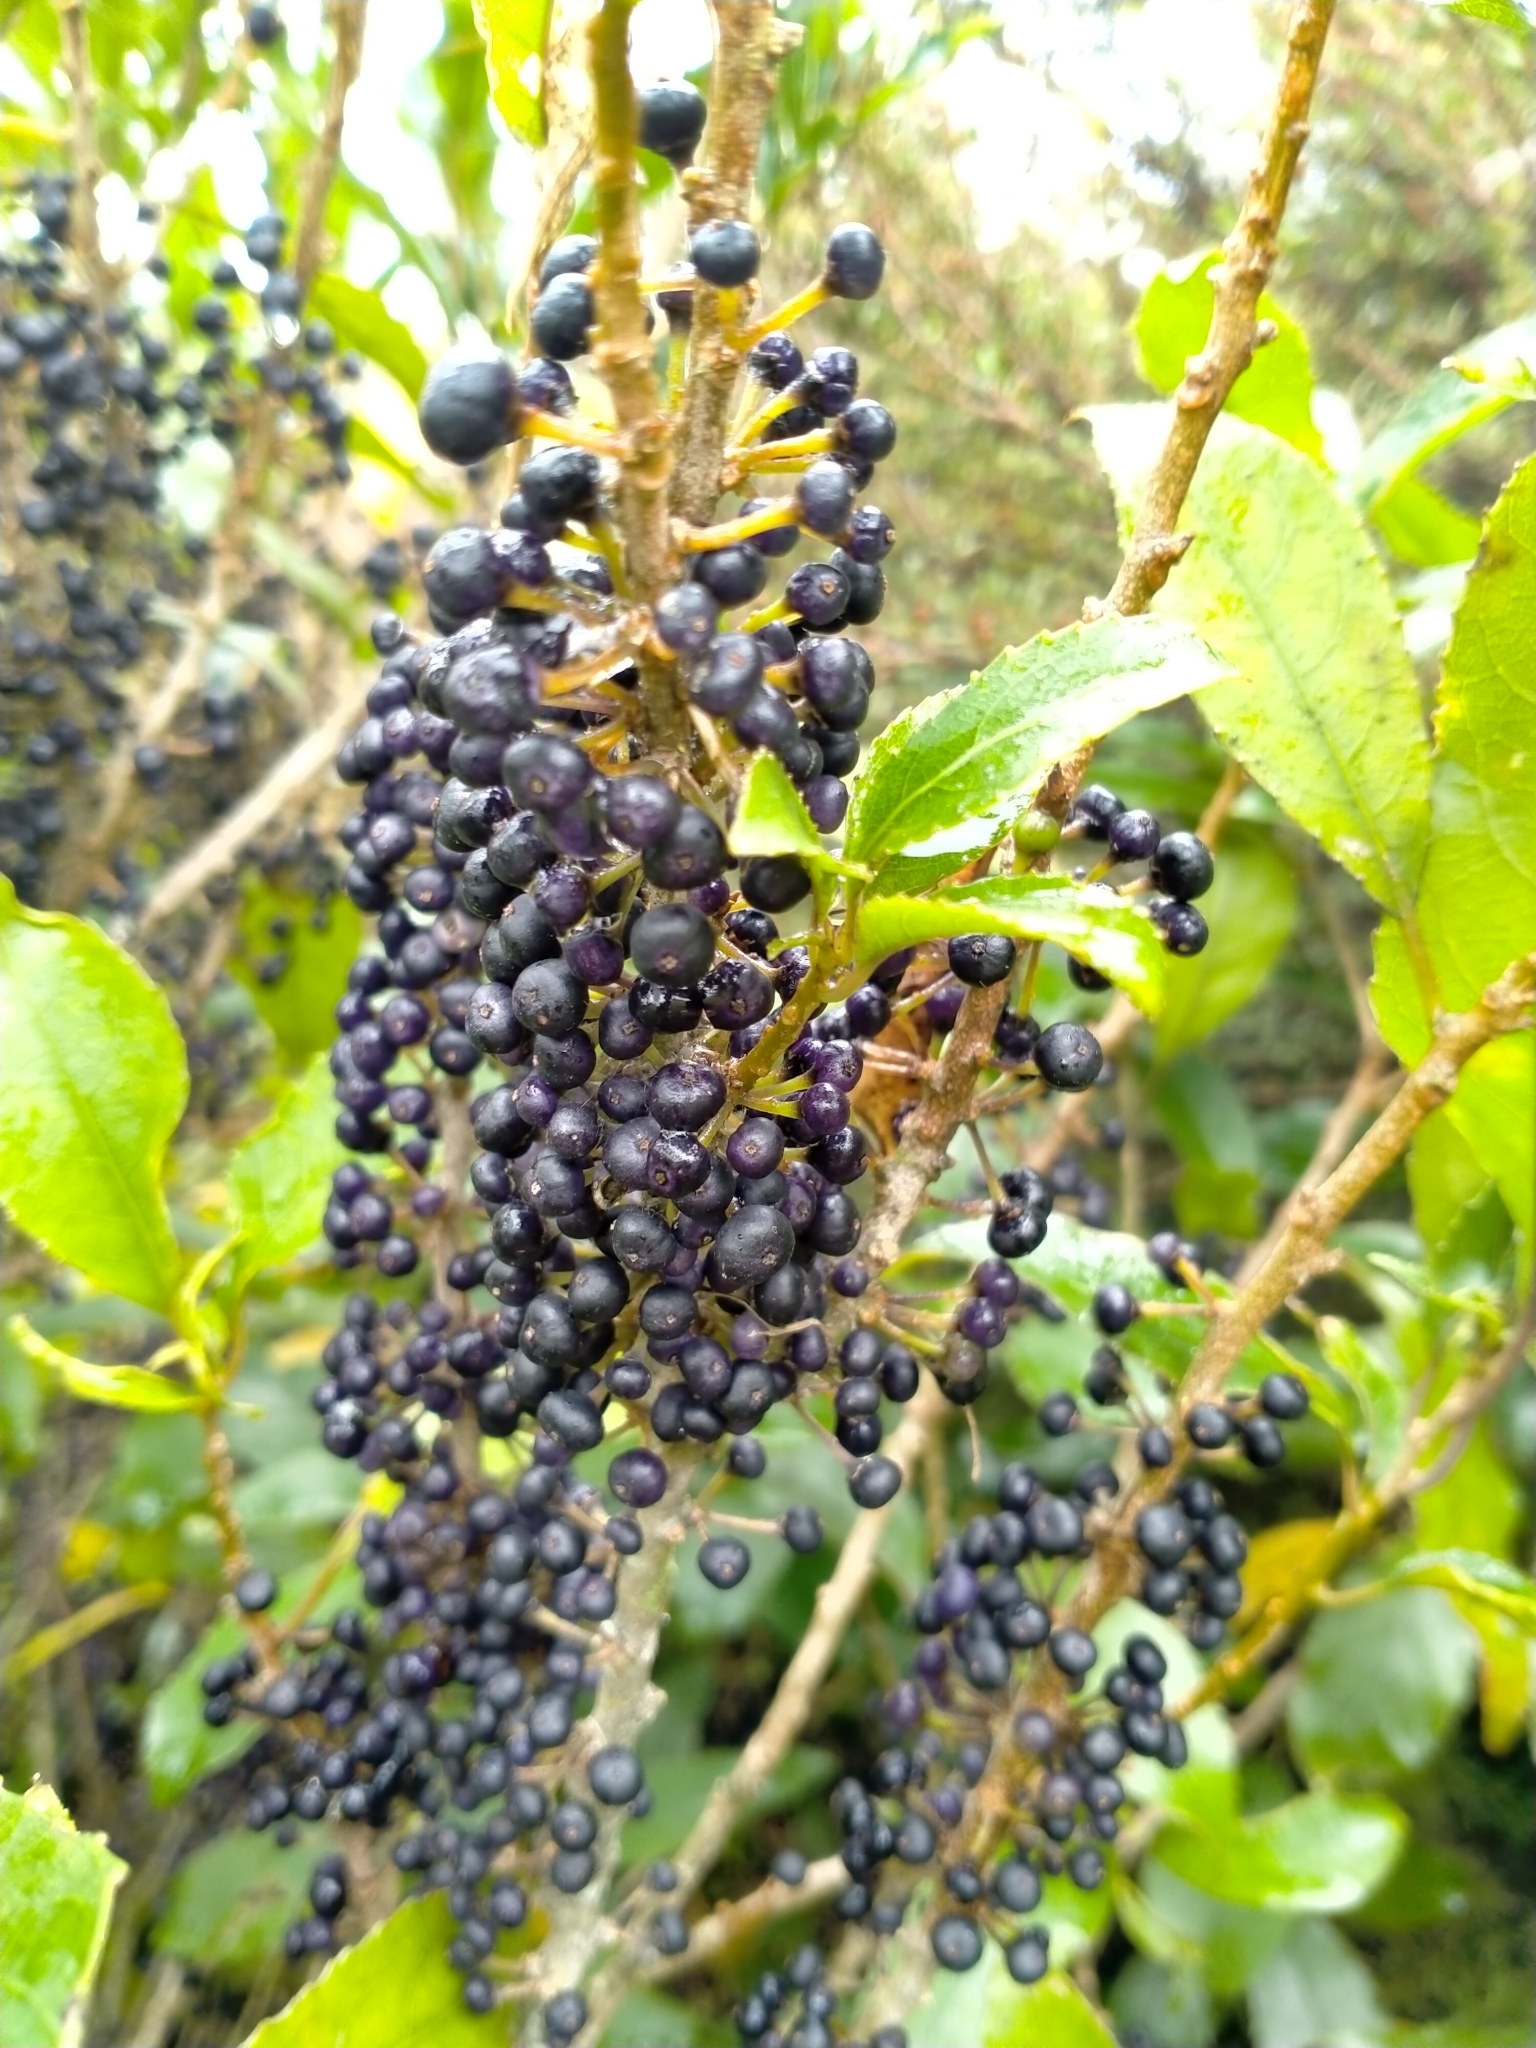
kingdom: Plantae
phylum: Tracheophyta
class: Magnoliopsida
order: Malpighiales
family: Violaceae
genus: Melicytus
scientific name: Melicytus ramiflorus
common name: Mahoe
